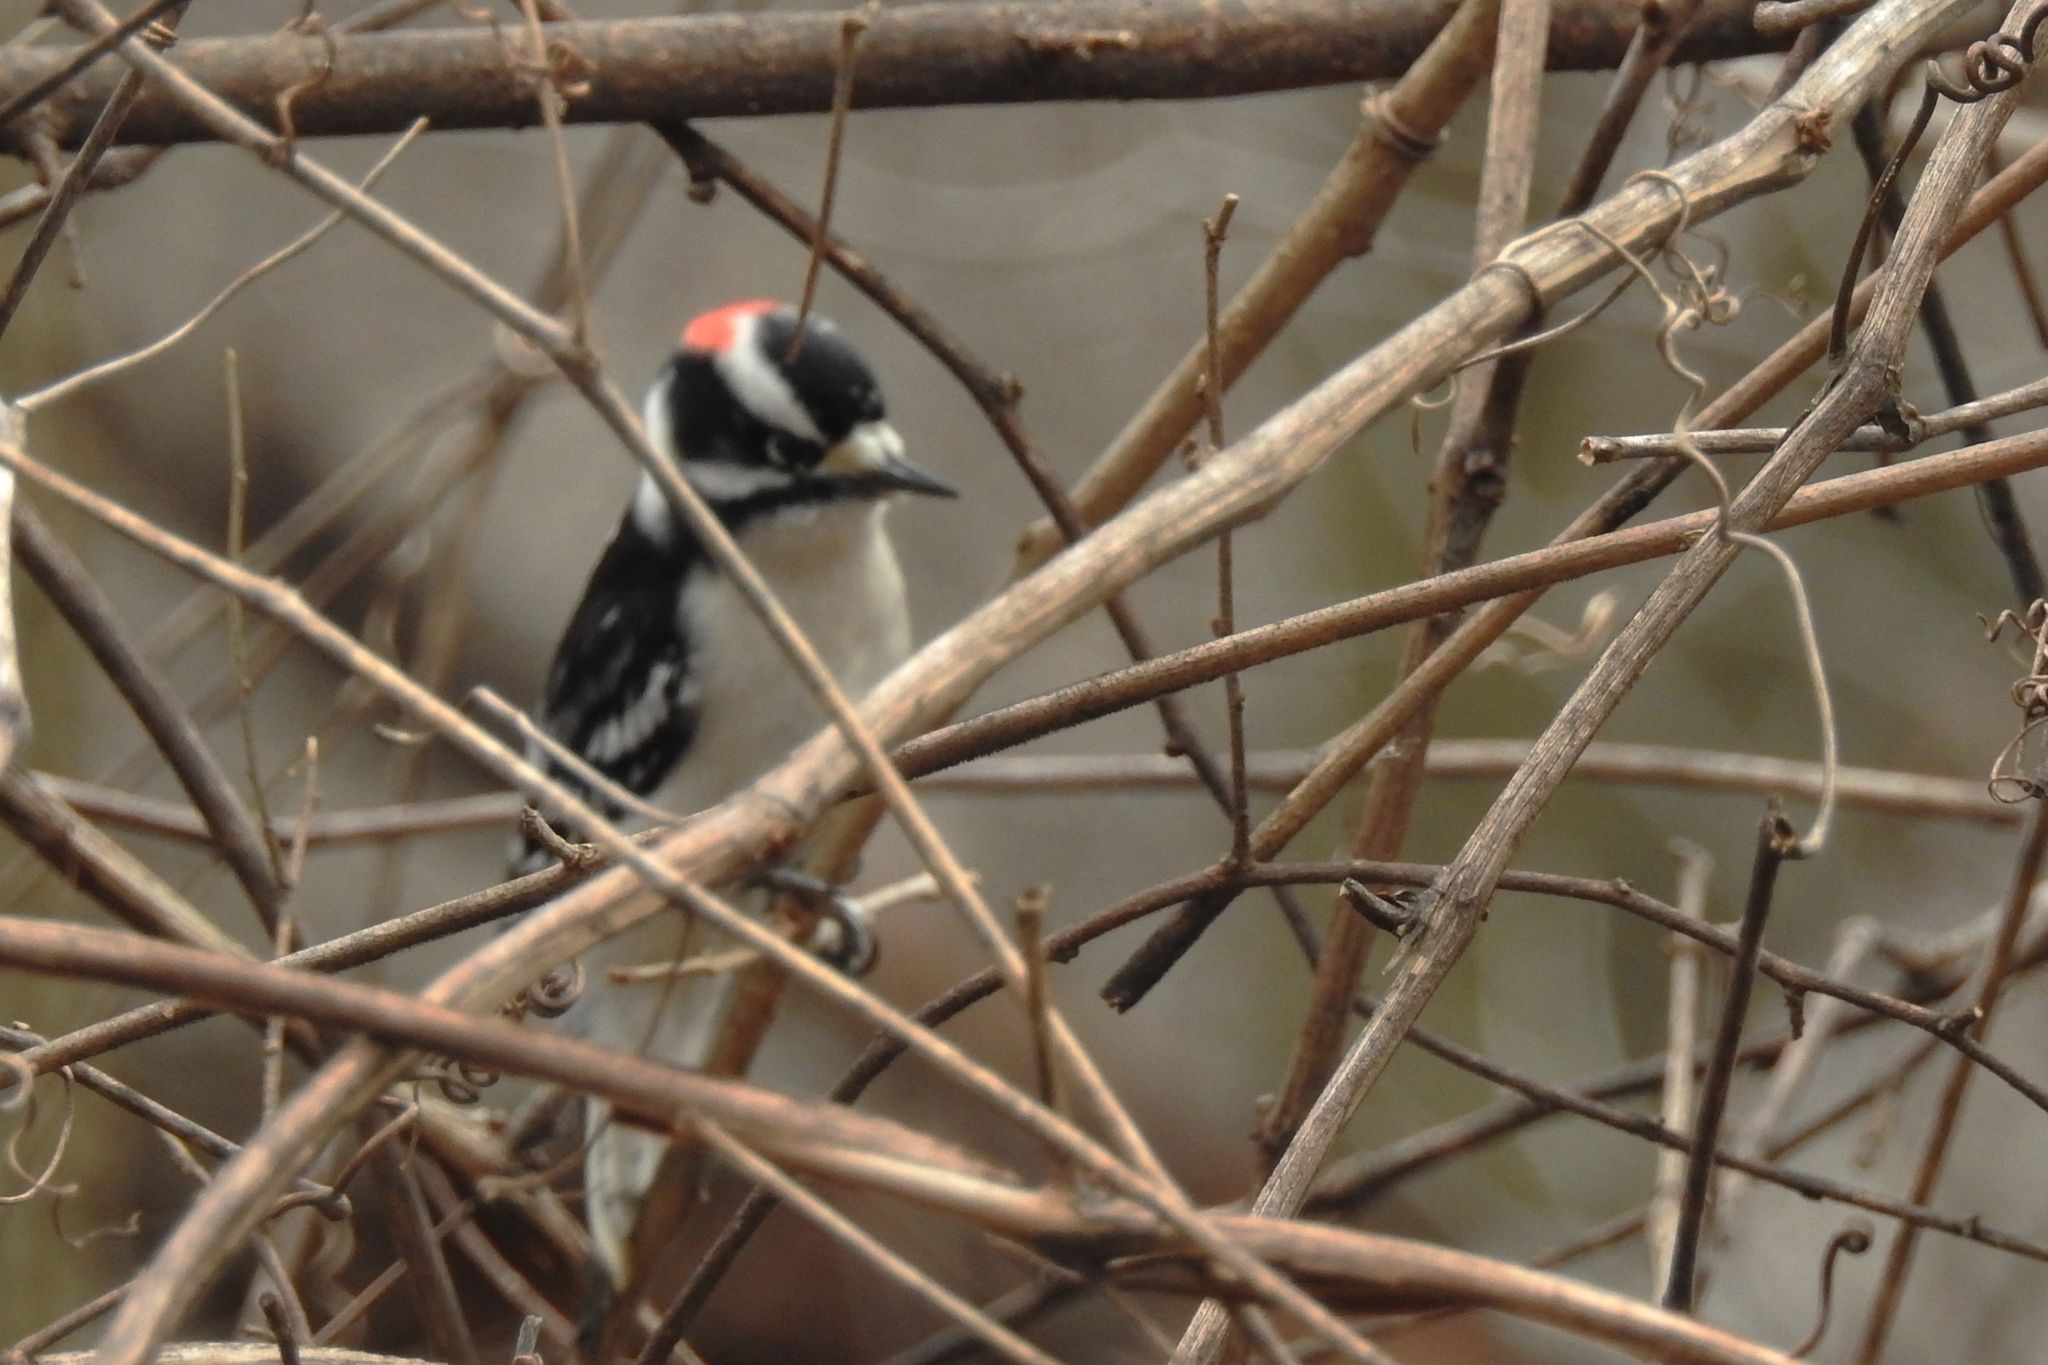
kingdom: Animalia
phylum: Chordata
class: Aves
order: Piciformes
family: Picidae
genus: Dryobates
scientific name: Dryobates pubescens
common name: Downy woodpecker
